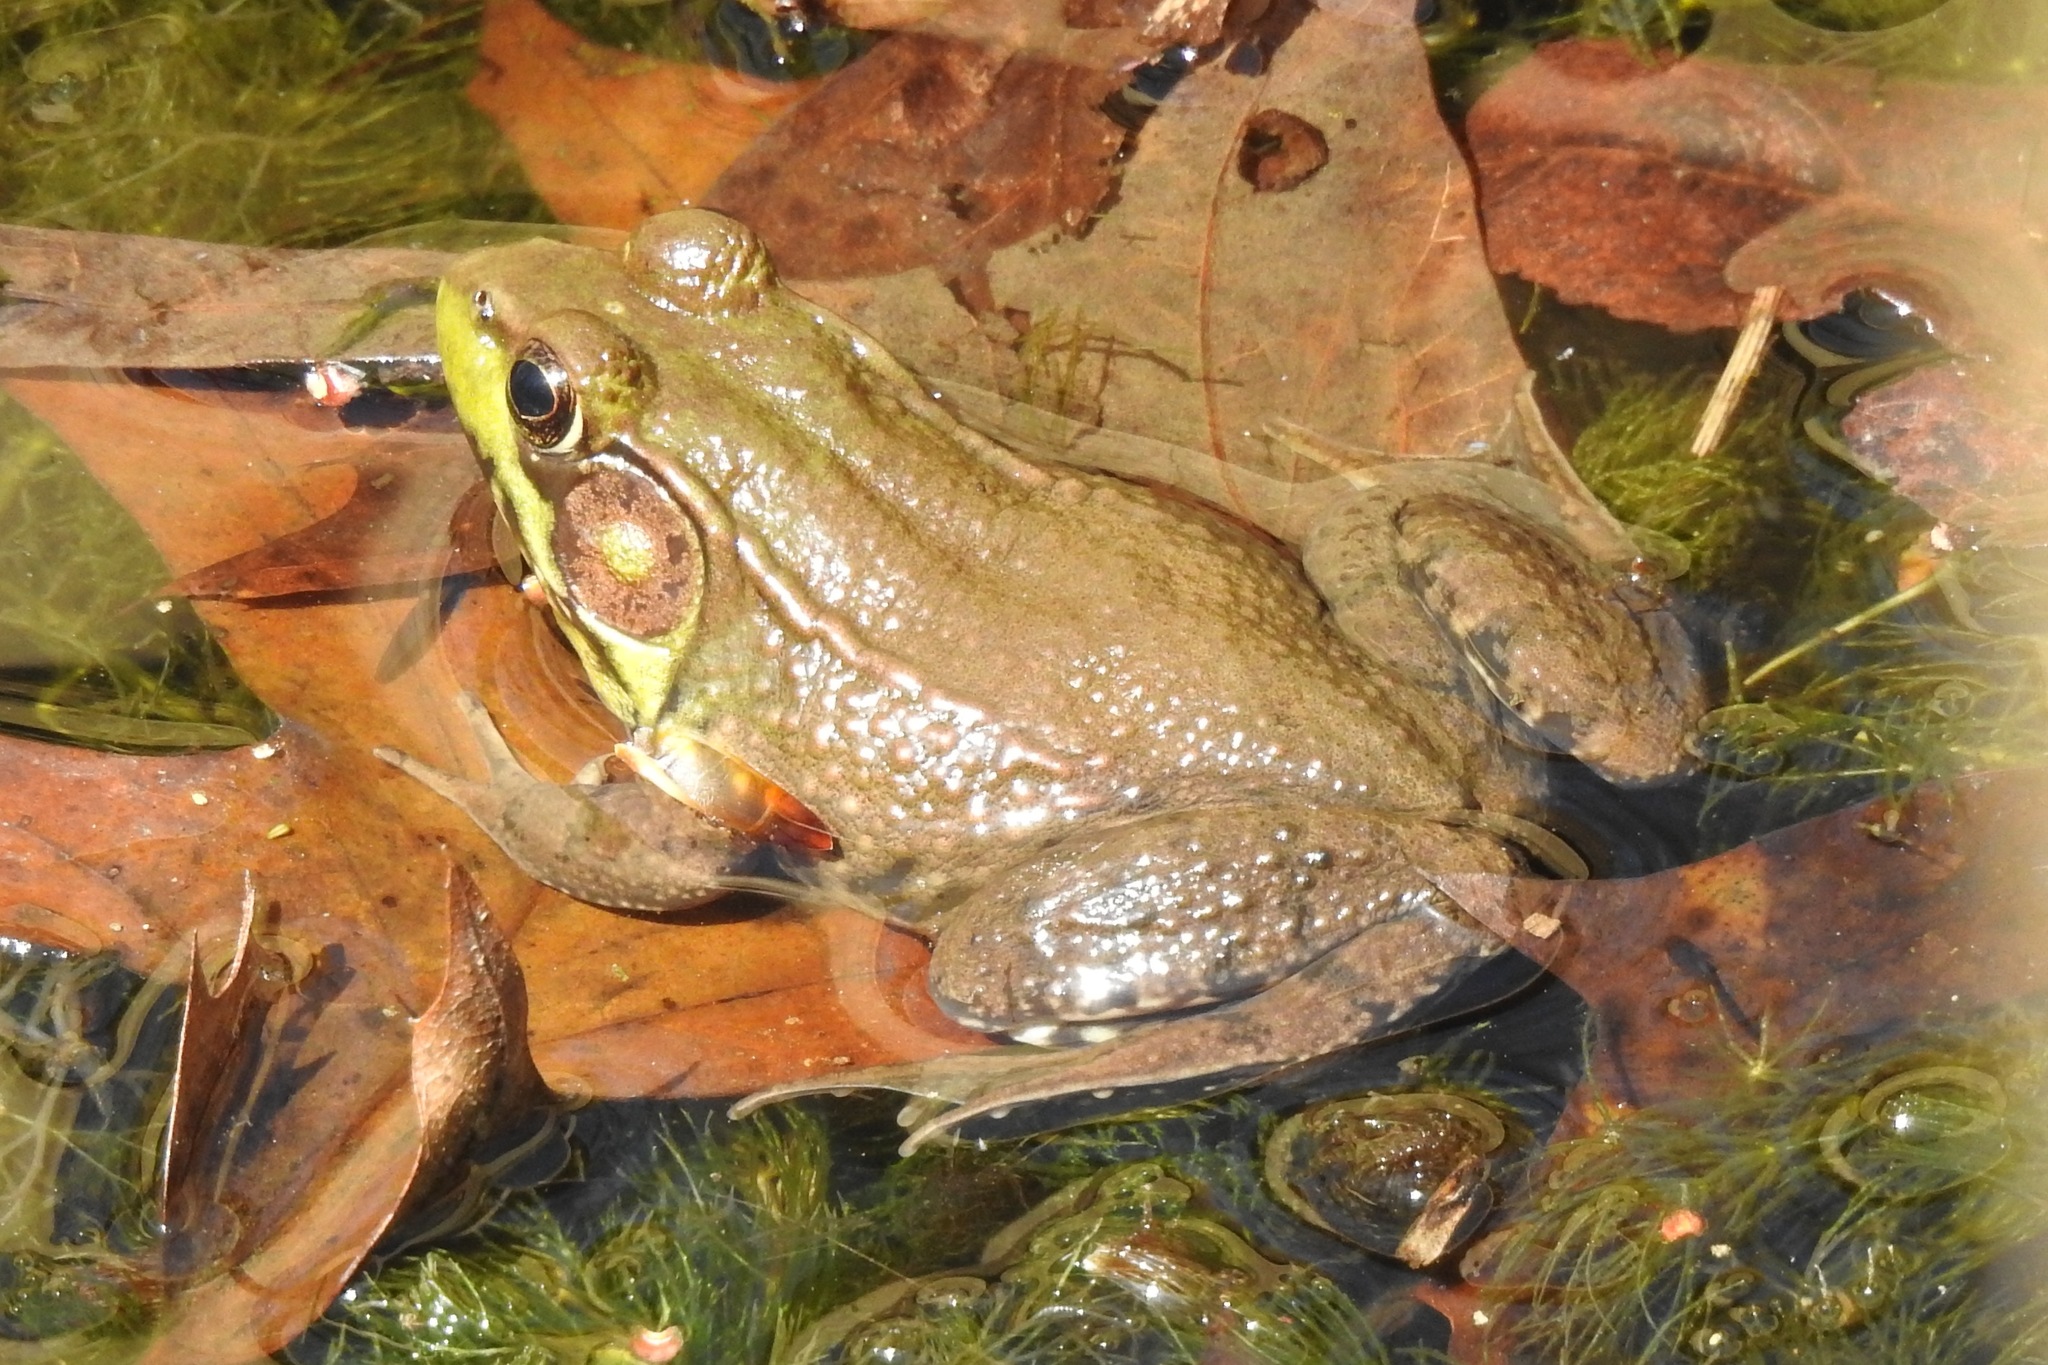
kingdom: Animalia
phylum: Chordata
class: Amphibia
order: Anura
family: Ranidae
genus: Lithobates
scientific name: Lithobates clamitans
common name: Green frog
